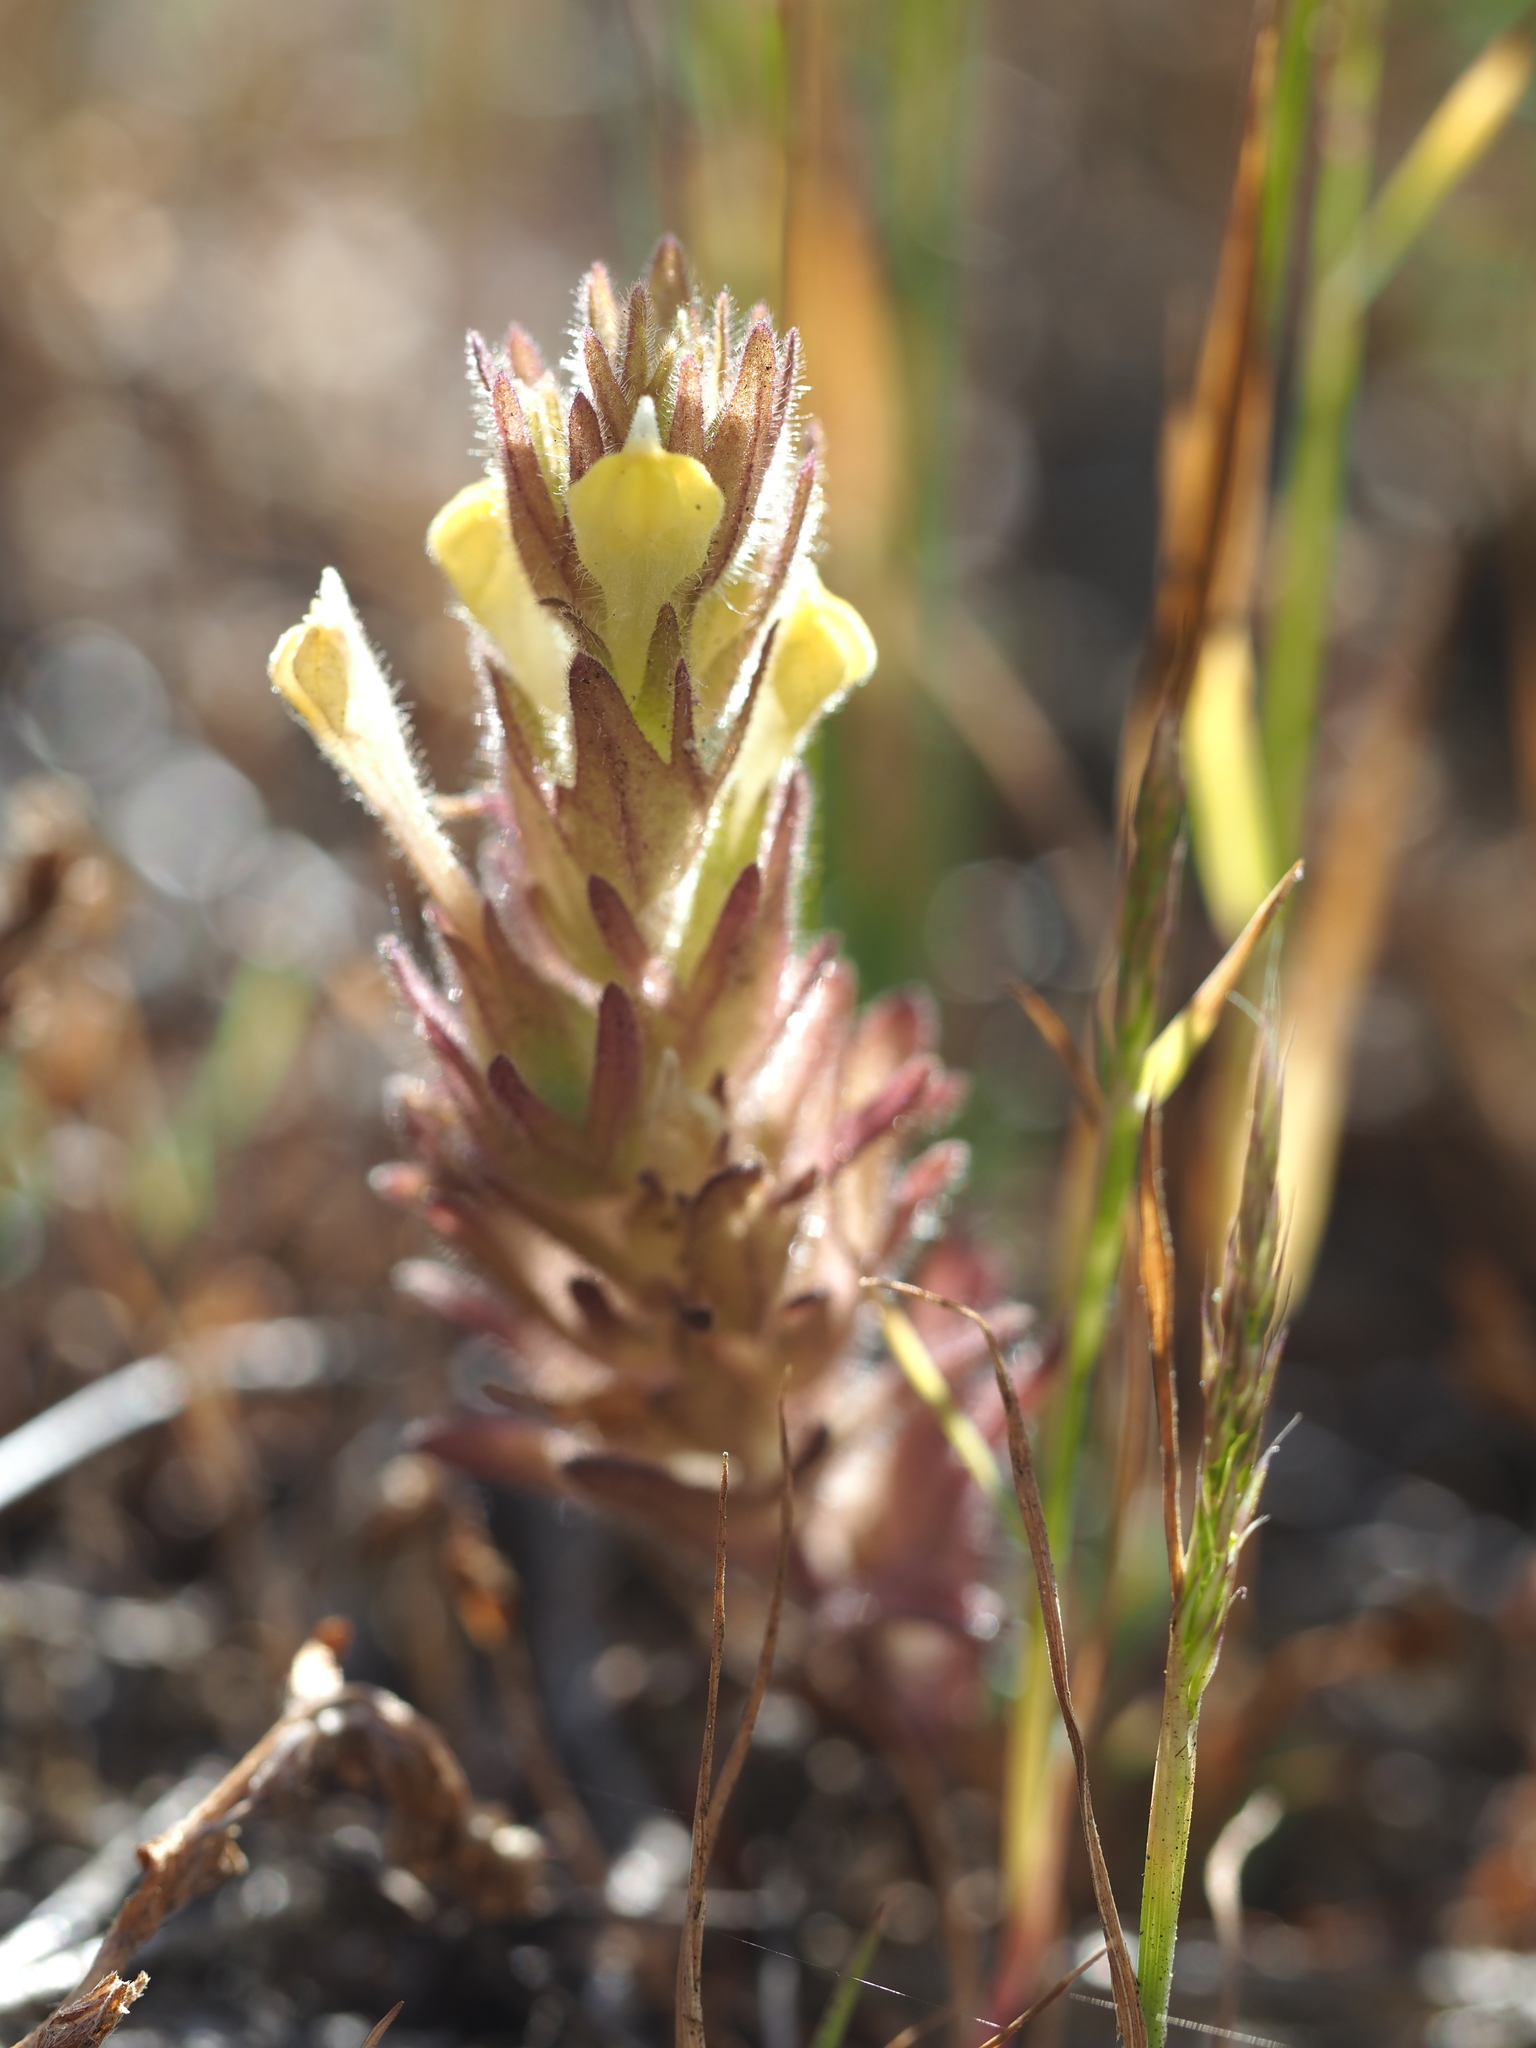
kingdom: Plantae
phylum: Tracheophyta
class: Magnoliopsida
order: Lamiales
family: Orobanchaceae
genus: Castilleja
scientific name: Castilleja victoriae
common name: Victoria paintbrush
